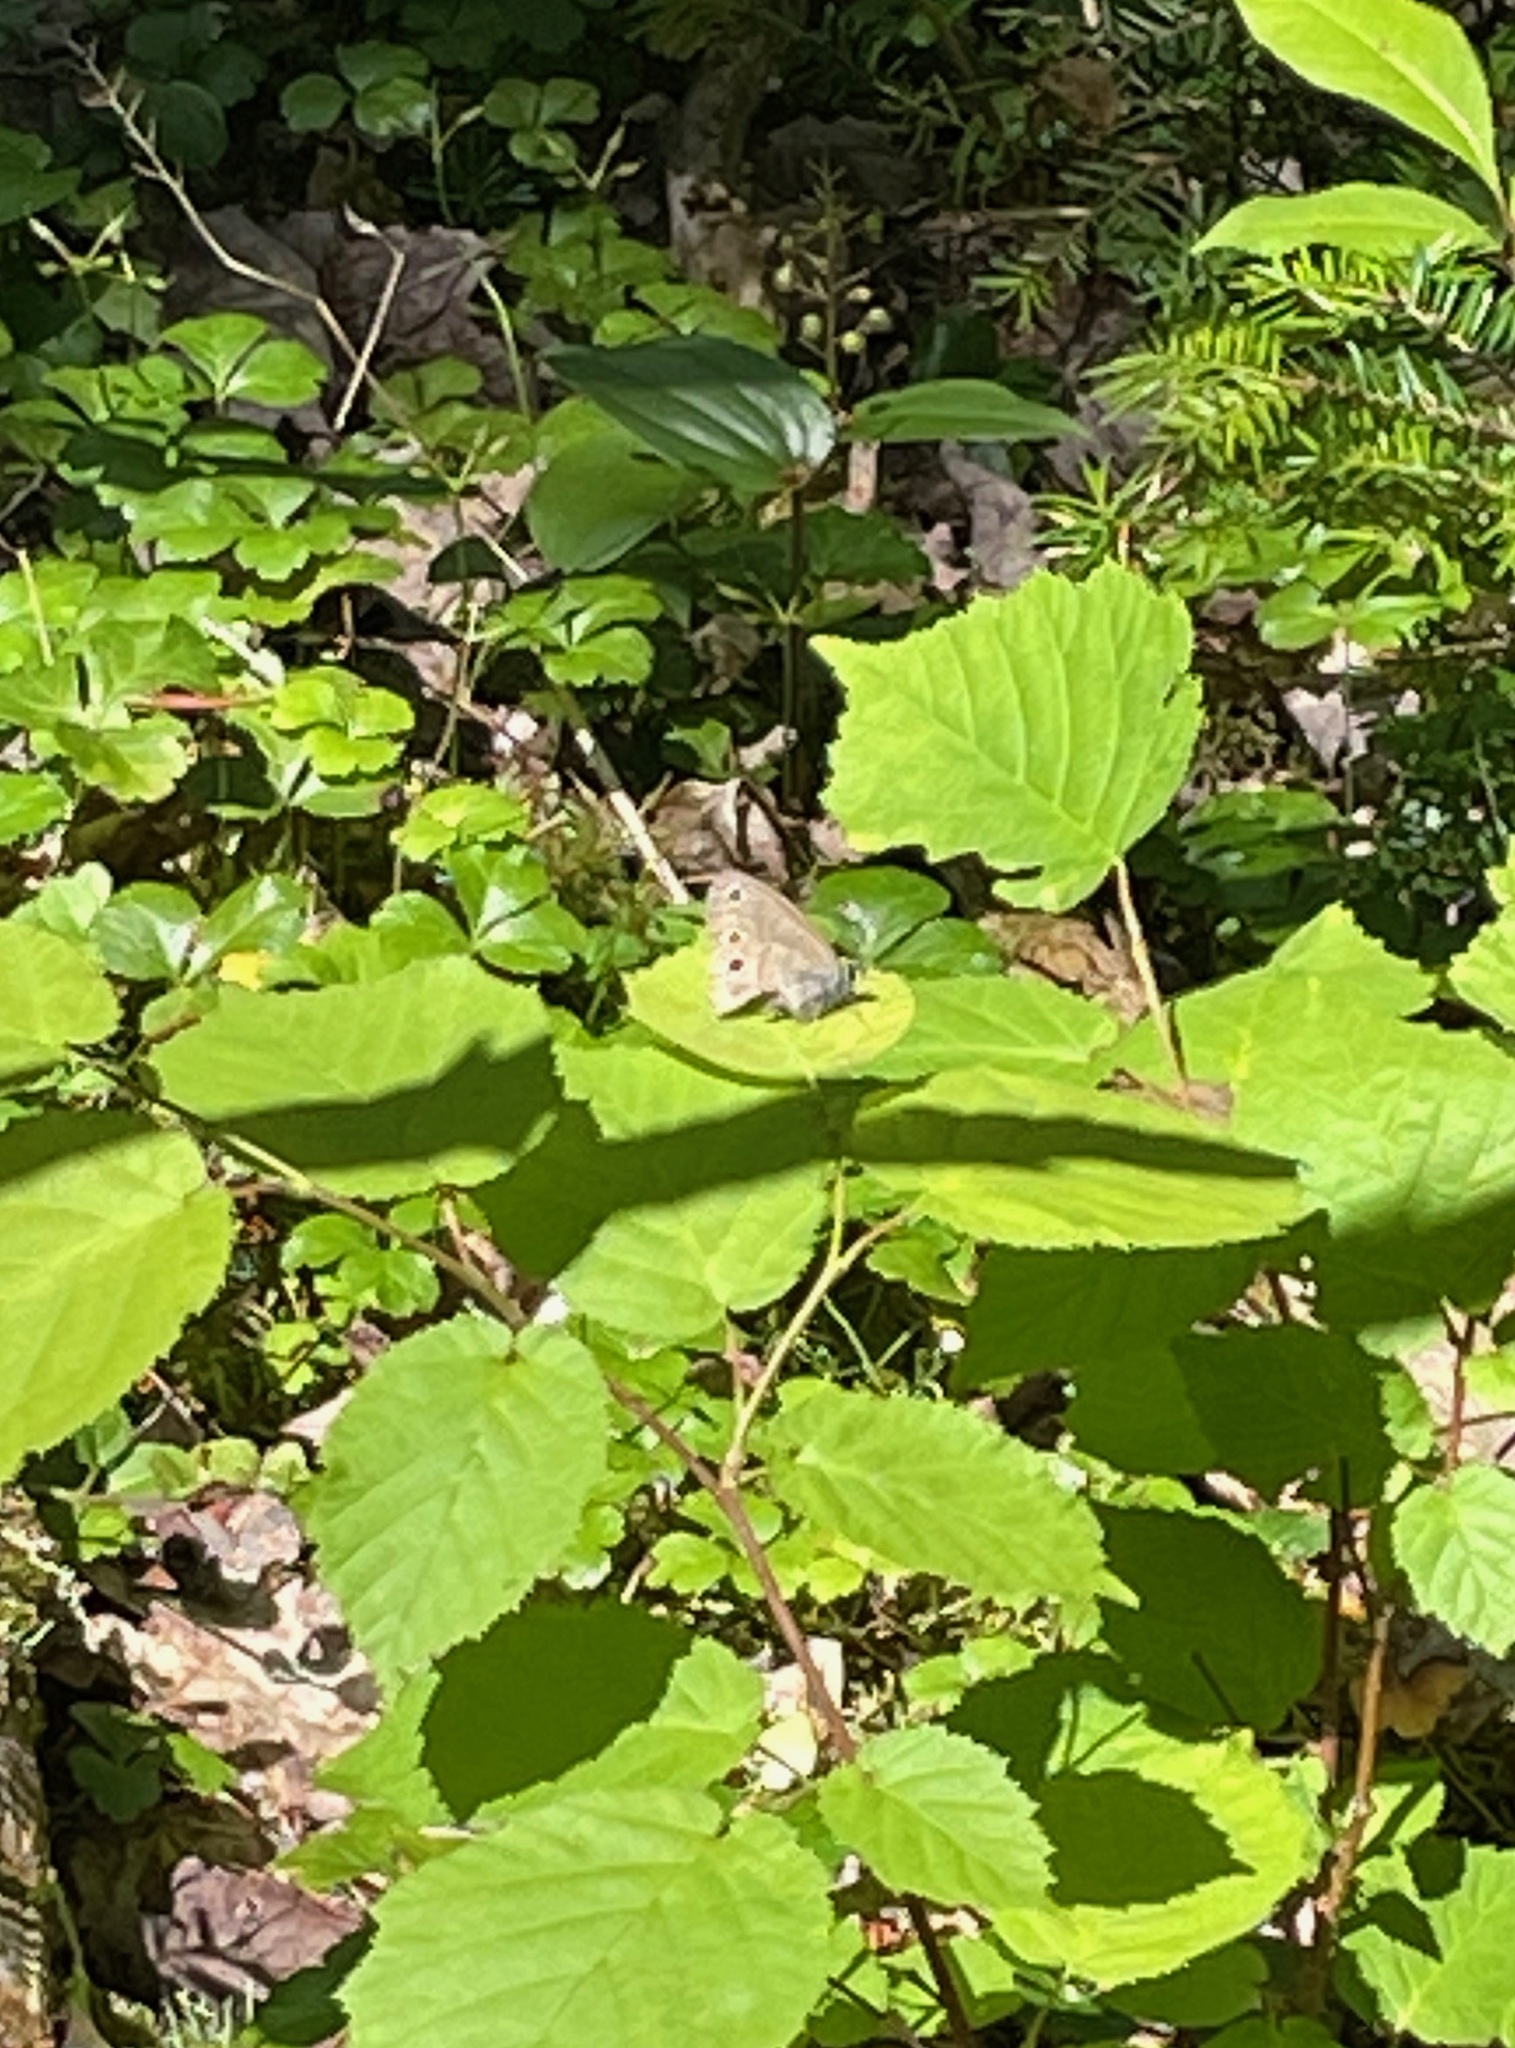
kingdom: Animalia
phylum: Arthropoda
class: Insecta
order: Lepidoptera
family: Nymphalidae
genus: Euptychia
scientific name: Euptychia cymela
